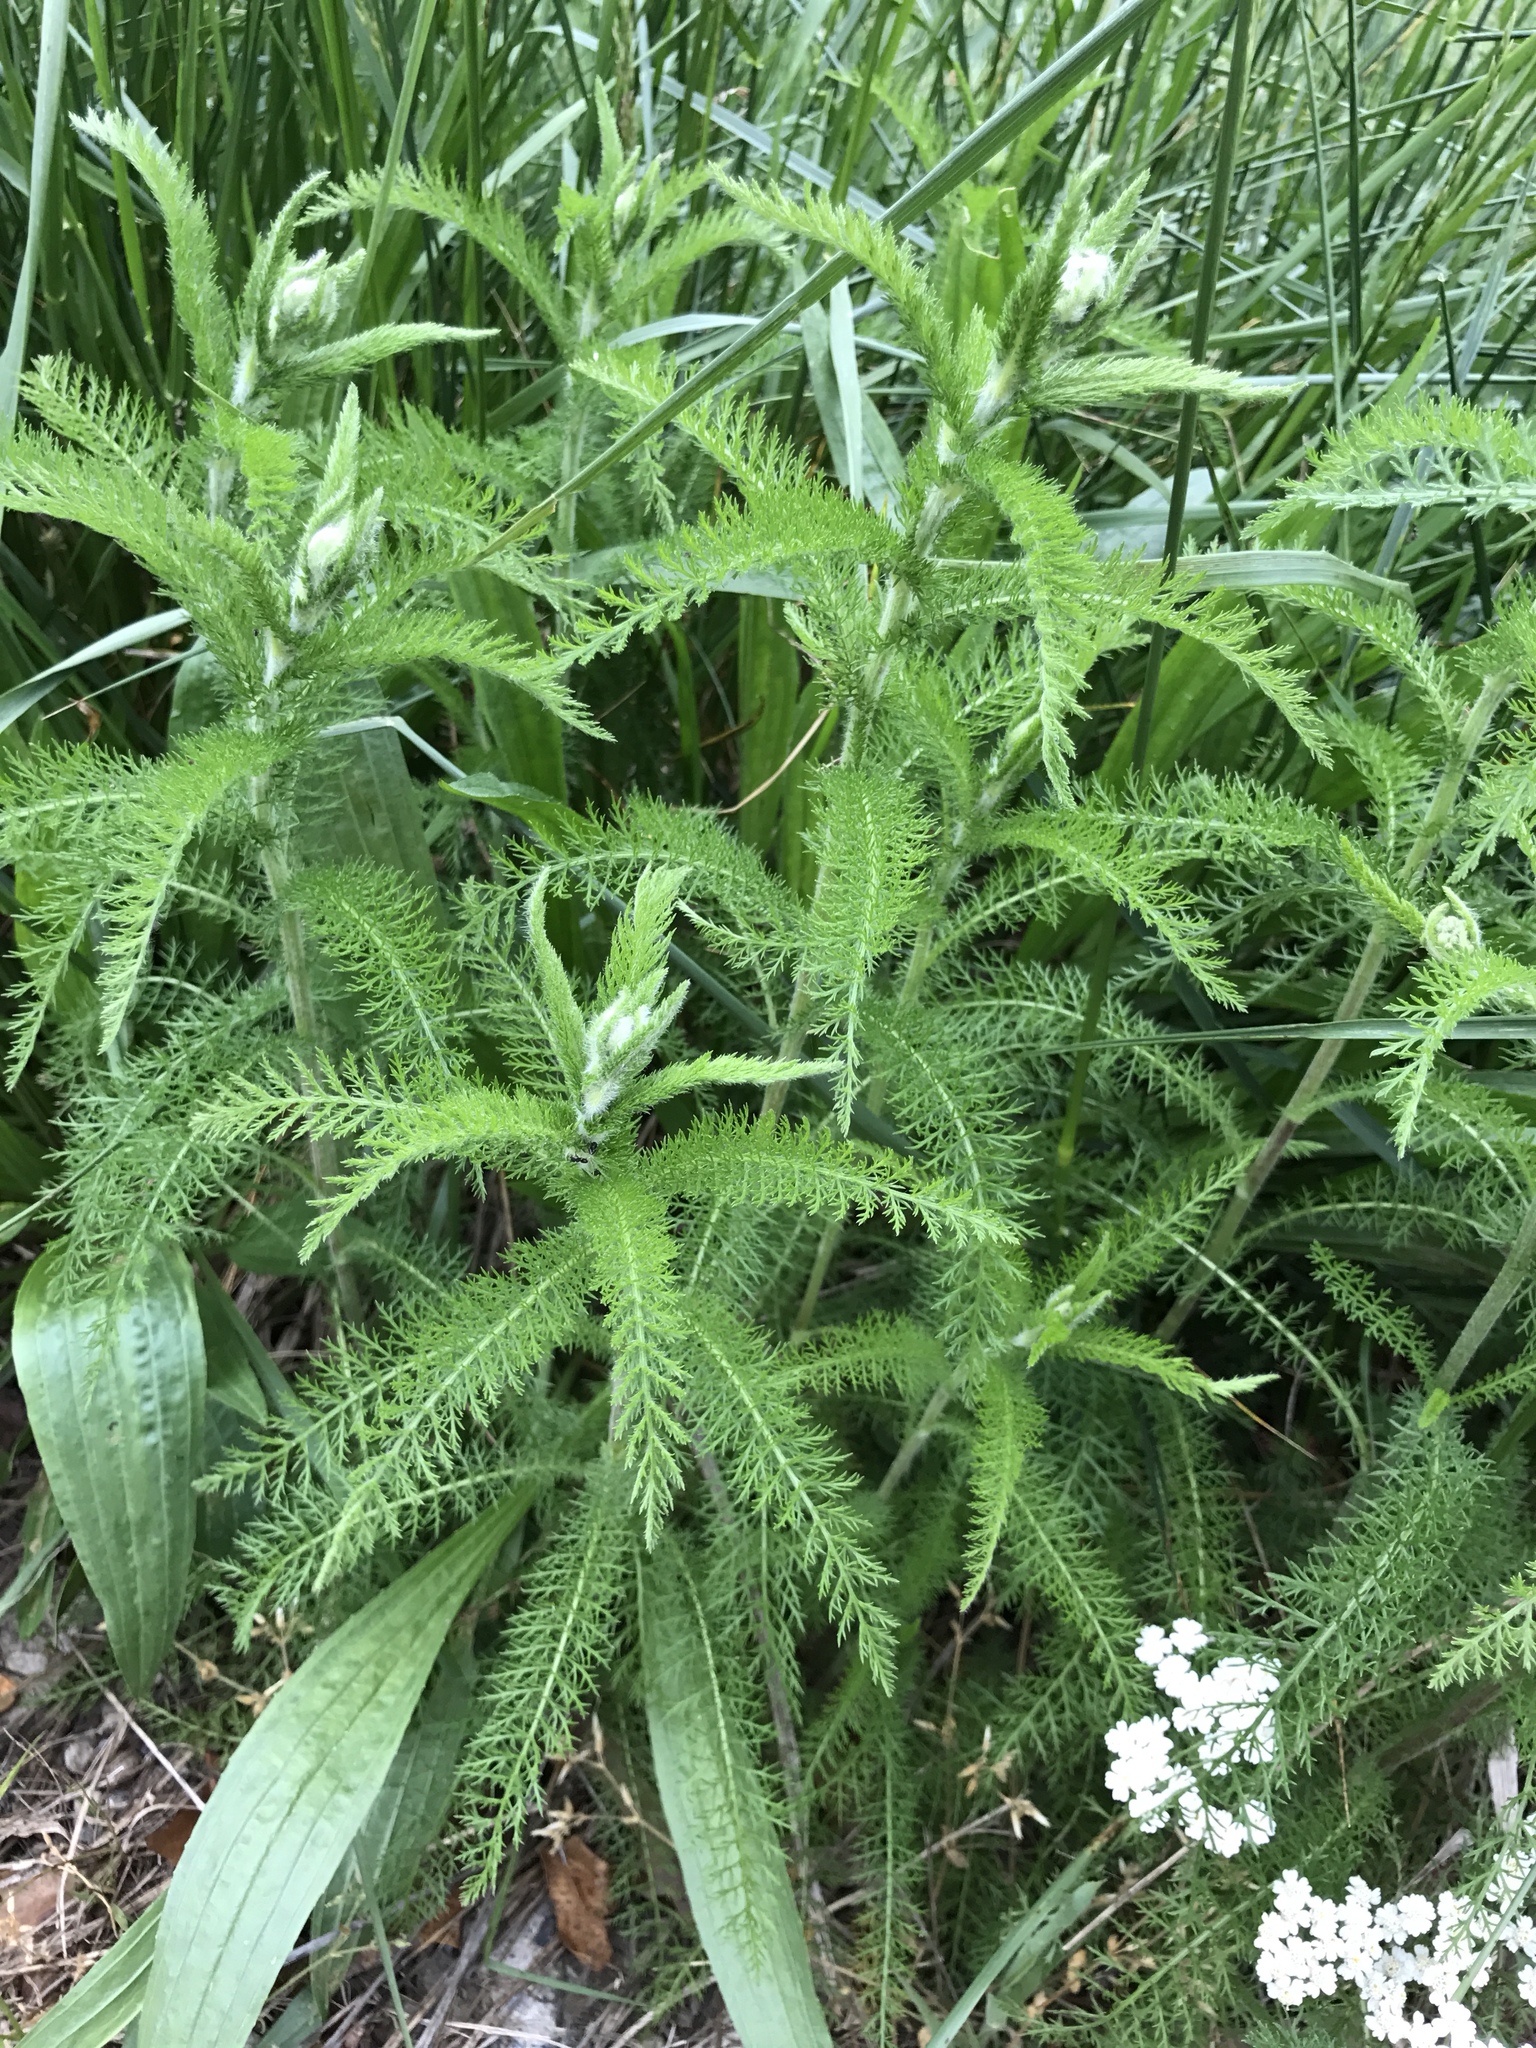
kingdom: Plantae
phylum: Tracheophyta
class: Magnoliopsida
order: Asterales
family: Asteraceae
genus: Achillea
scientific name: Achillea millefolium
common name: Yarrow
